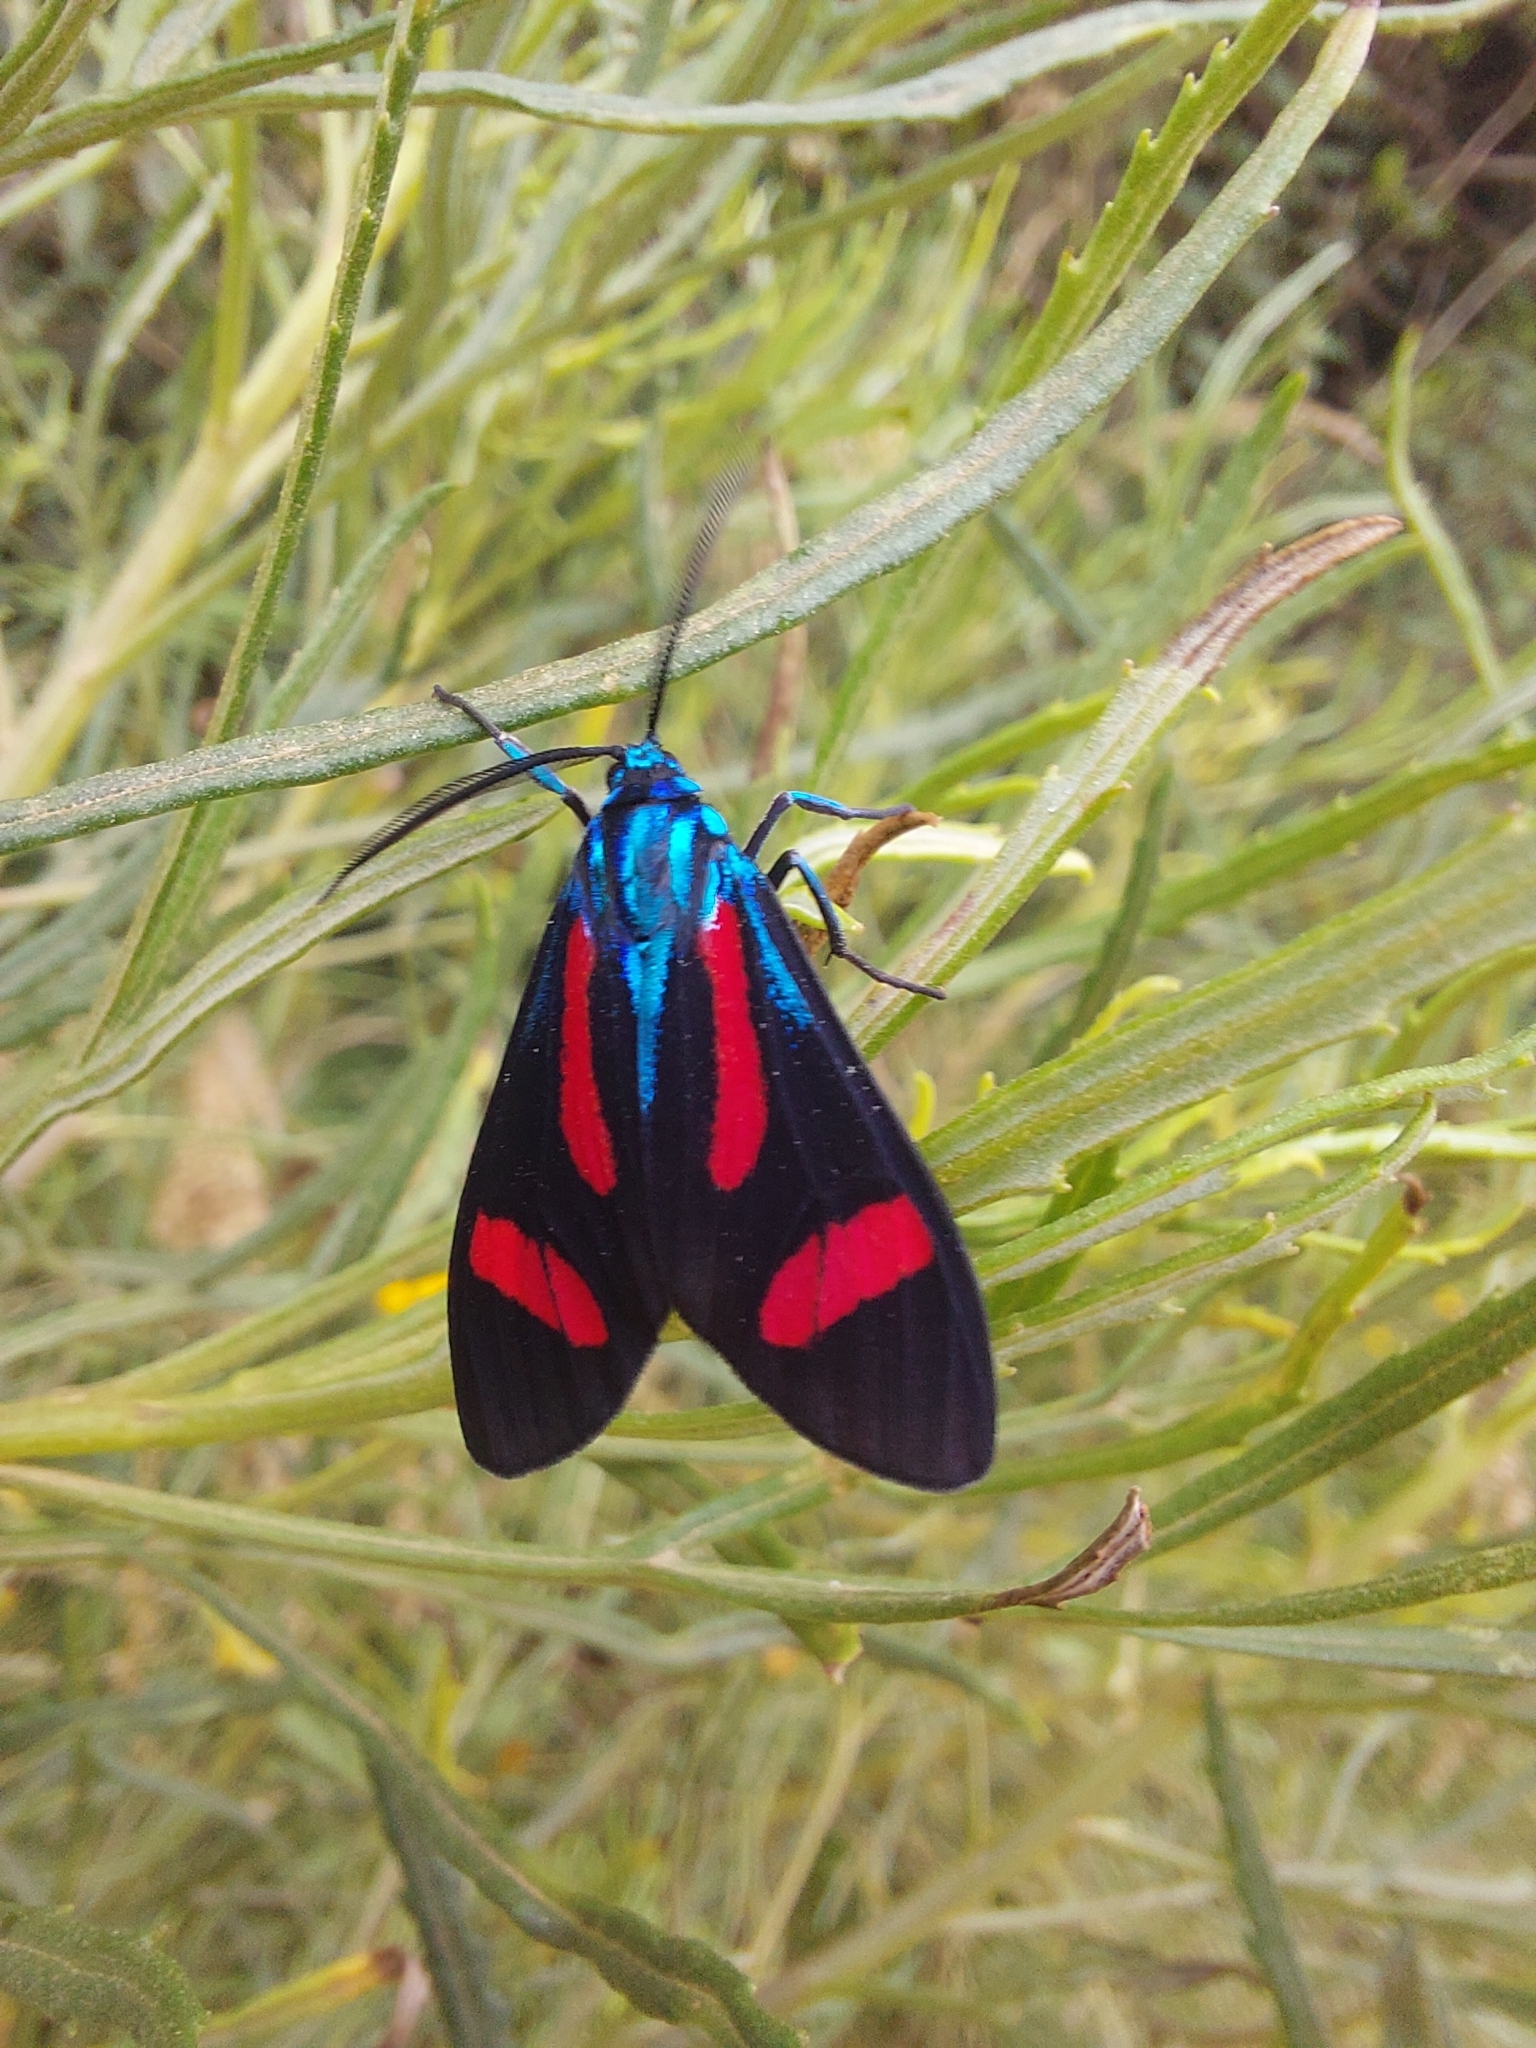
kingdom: Animalia
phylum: Arthropoda
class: Insecta
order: Lepidoptera
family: Erebidae
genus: Cyanopepla
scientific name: Cyanopepla jucunda
